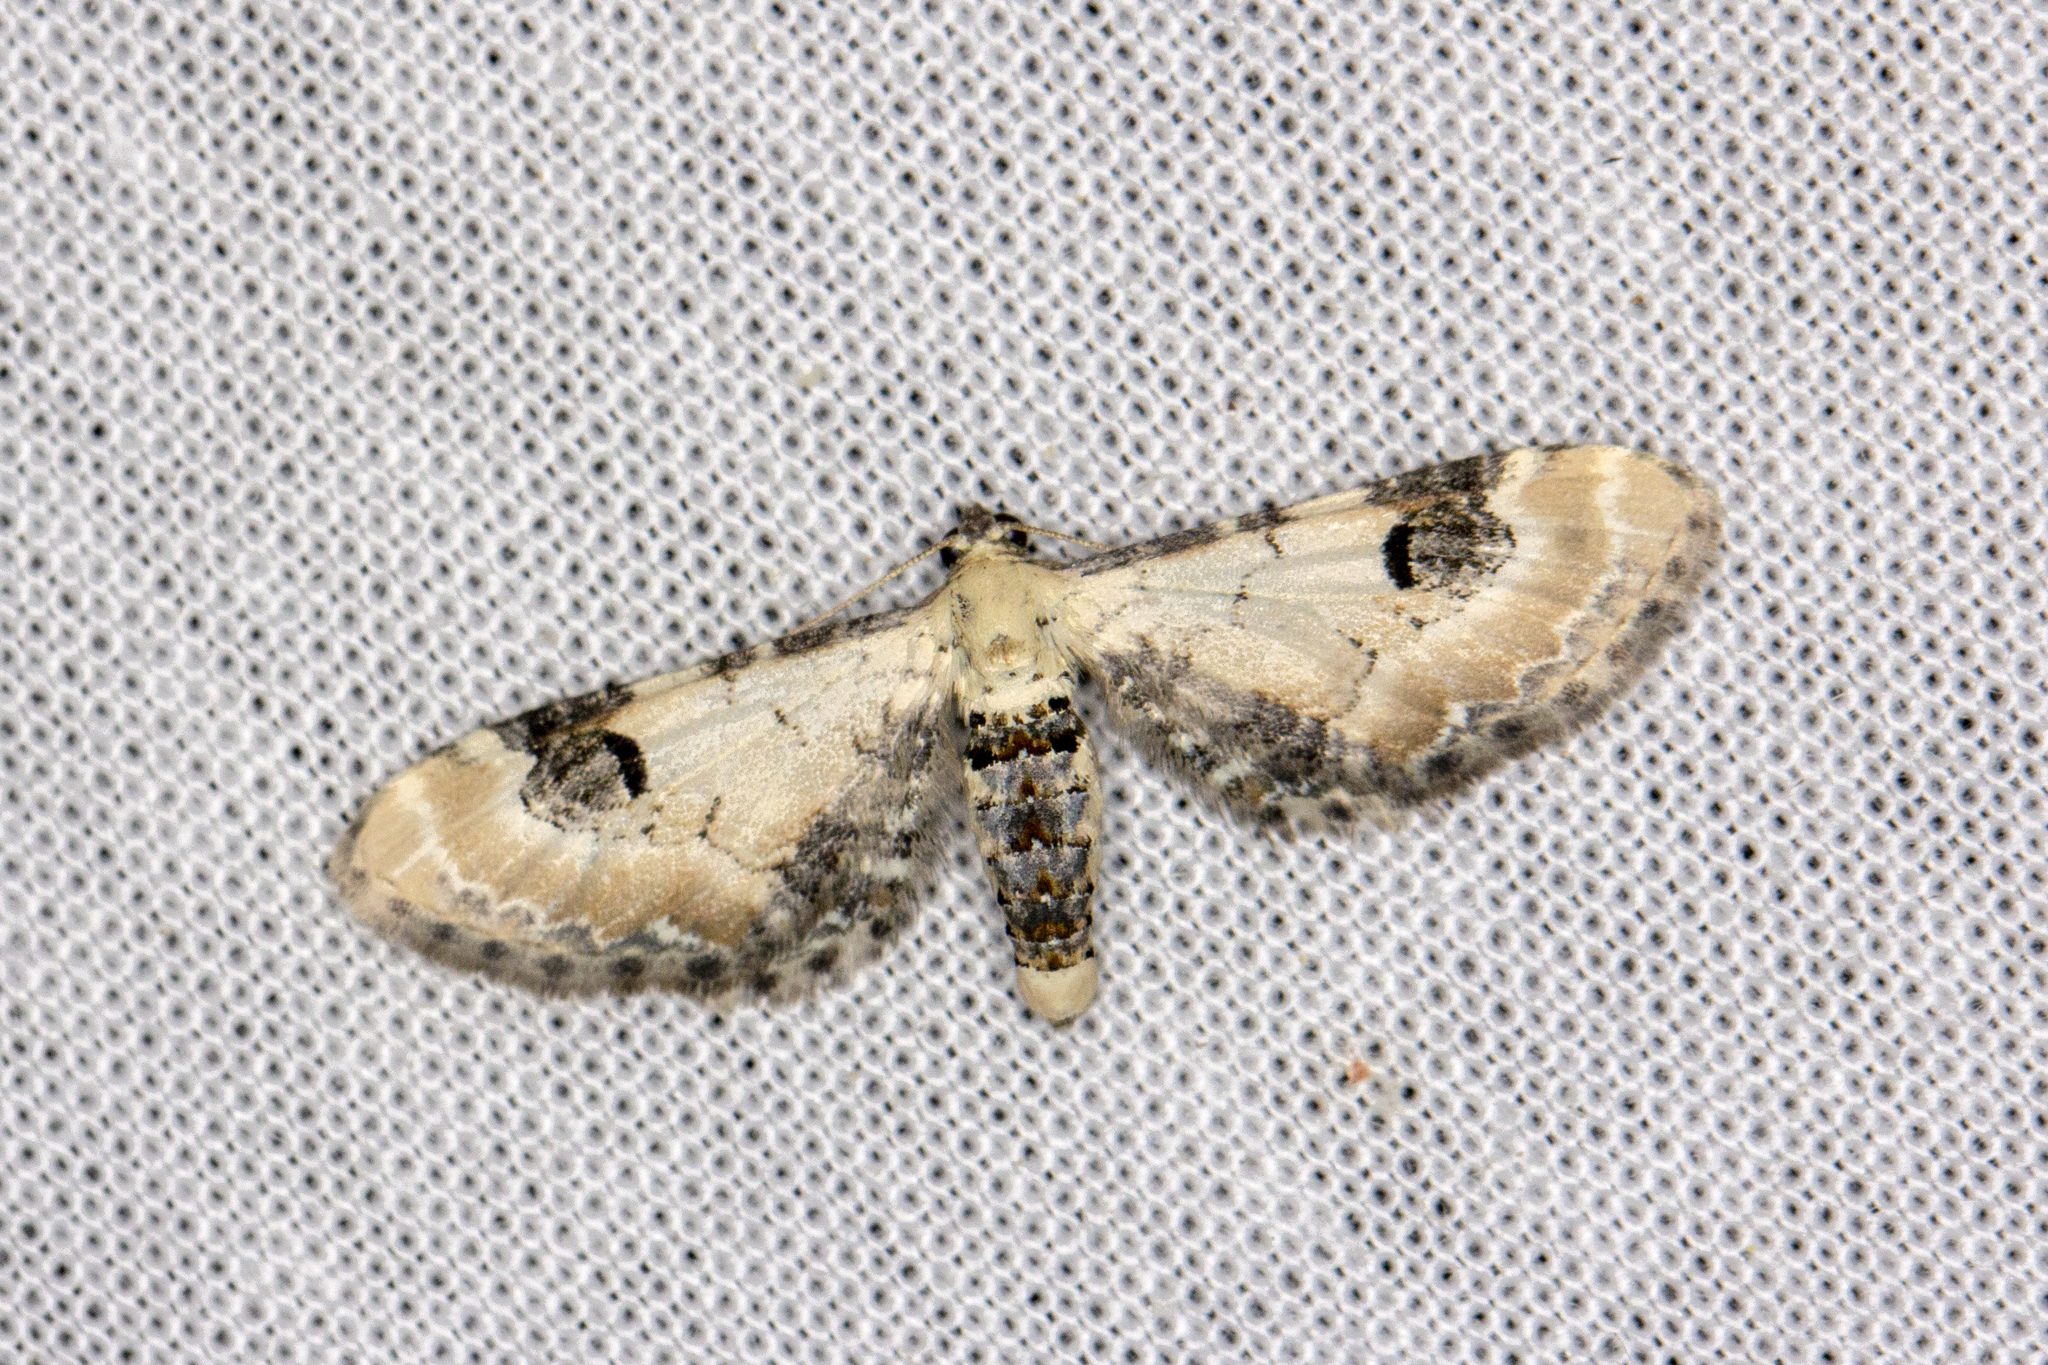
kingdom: Animalia
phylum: Arthropoda
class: Insecta
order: Lepidoptera
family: Geometridae
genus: Eupithecia
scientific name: Eupithecia centaureata
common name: Lime-speck pug
